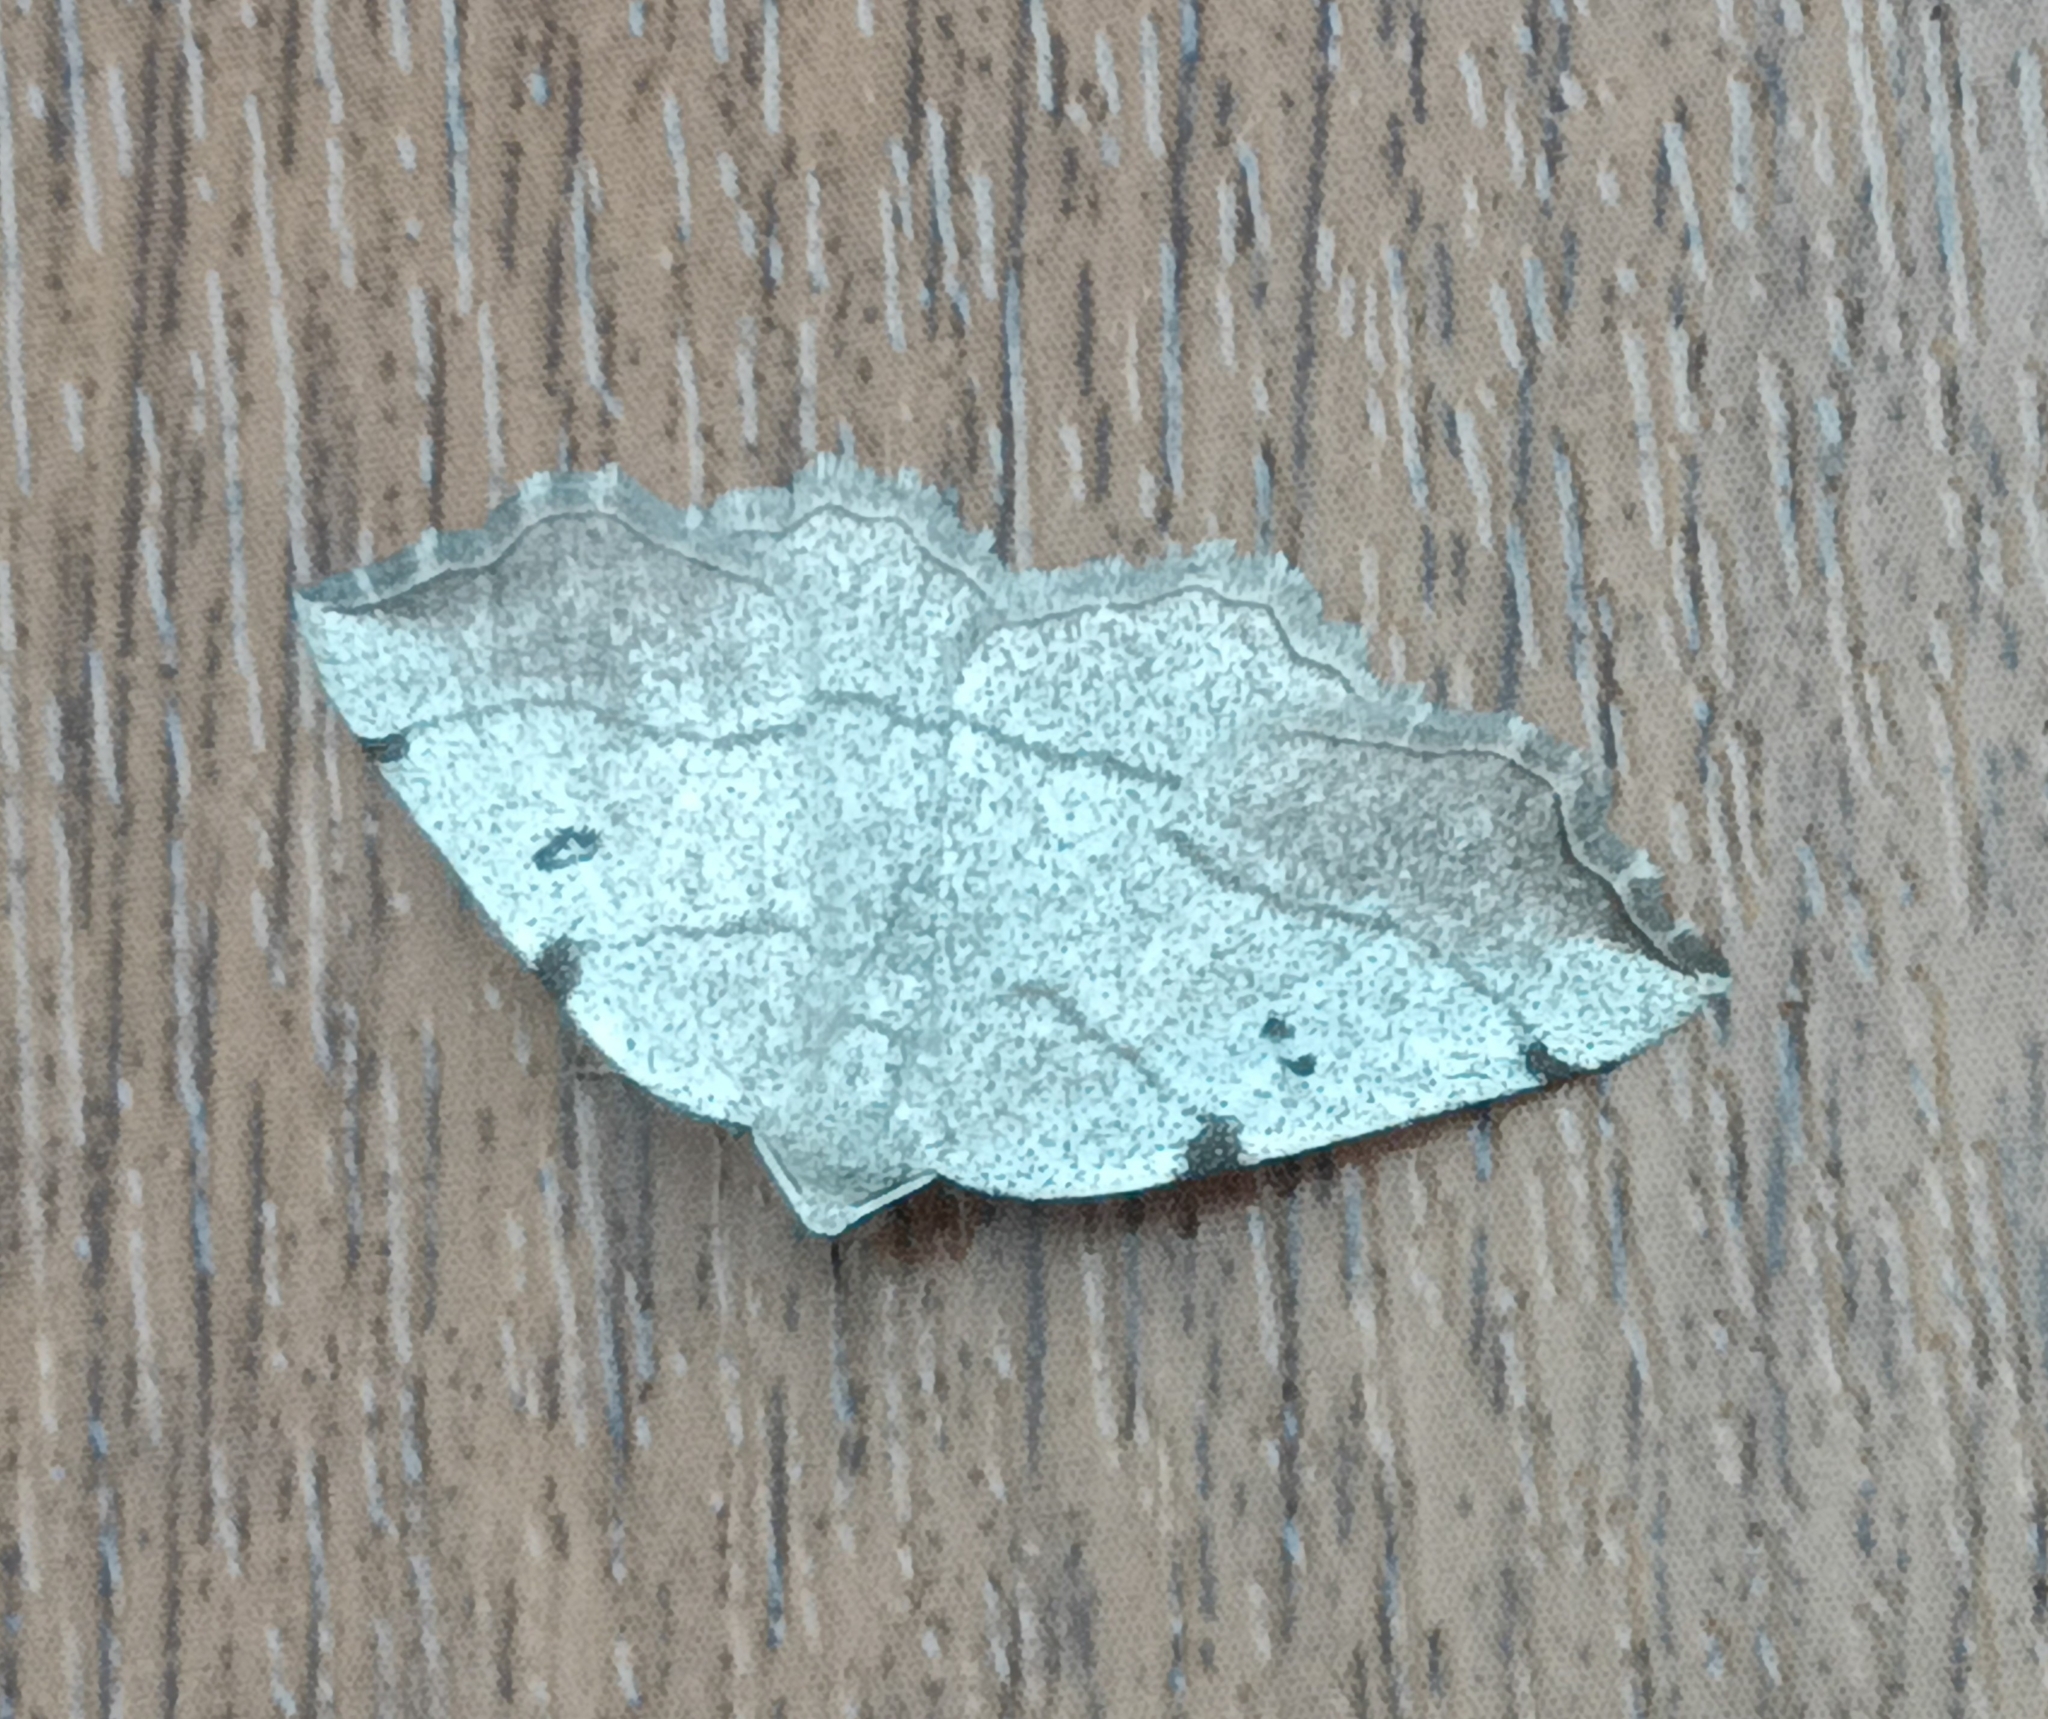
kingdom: Animalia
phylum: Arthropoda
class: Insecta
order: Lepidoptera
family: Geometridae
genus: Eilicrinia
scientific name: Eilicrinia trinotata
